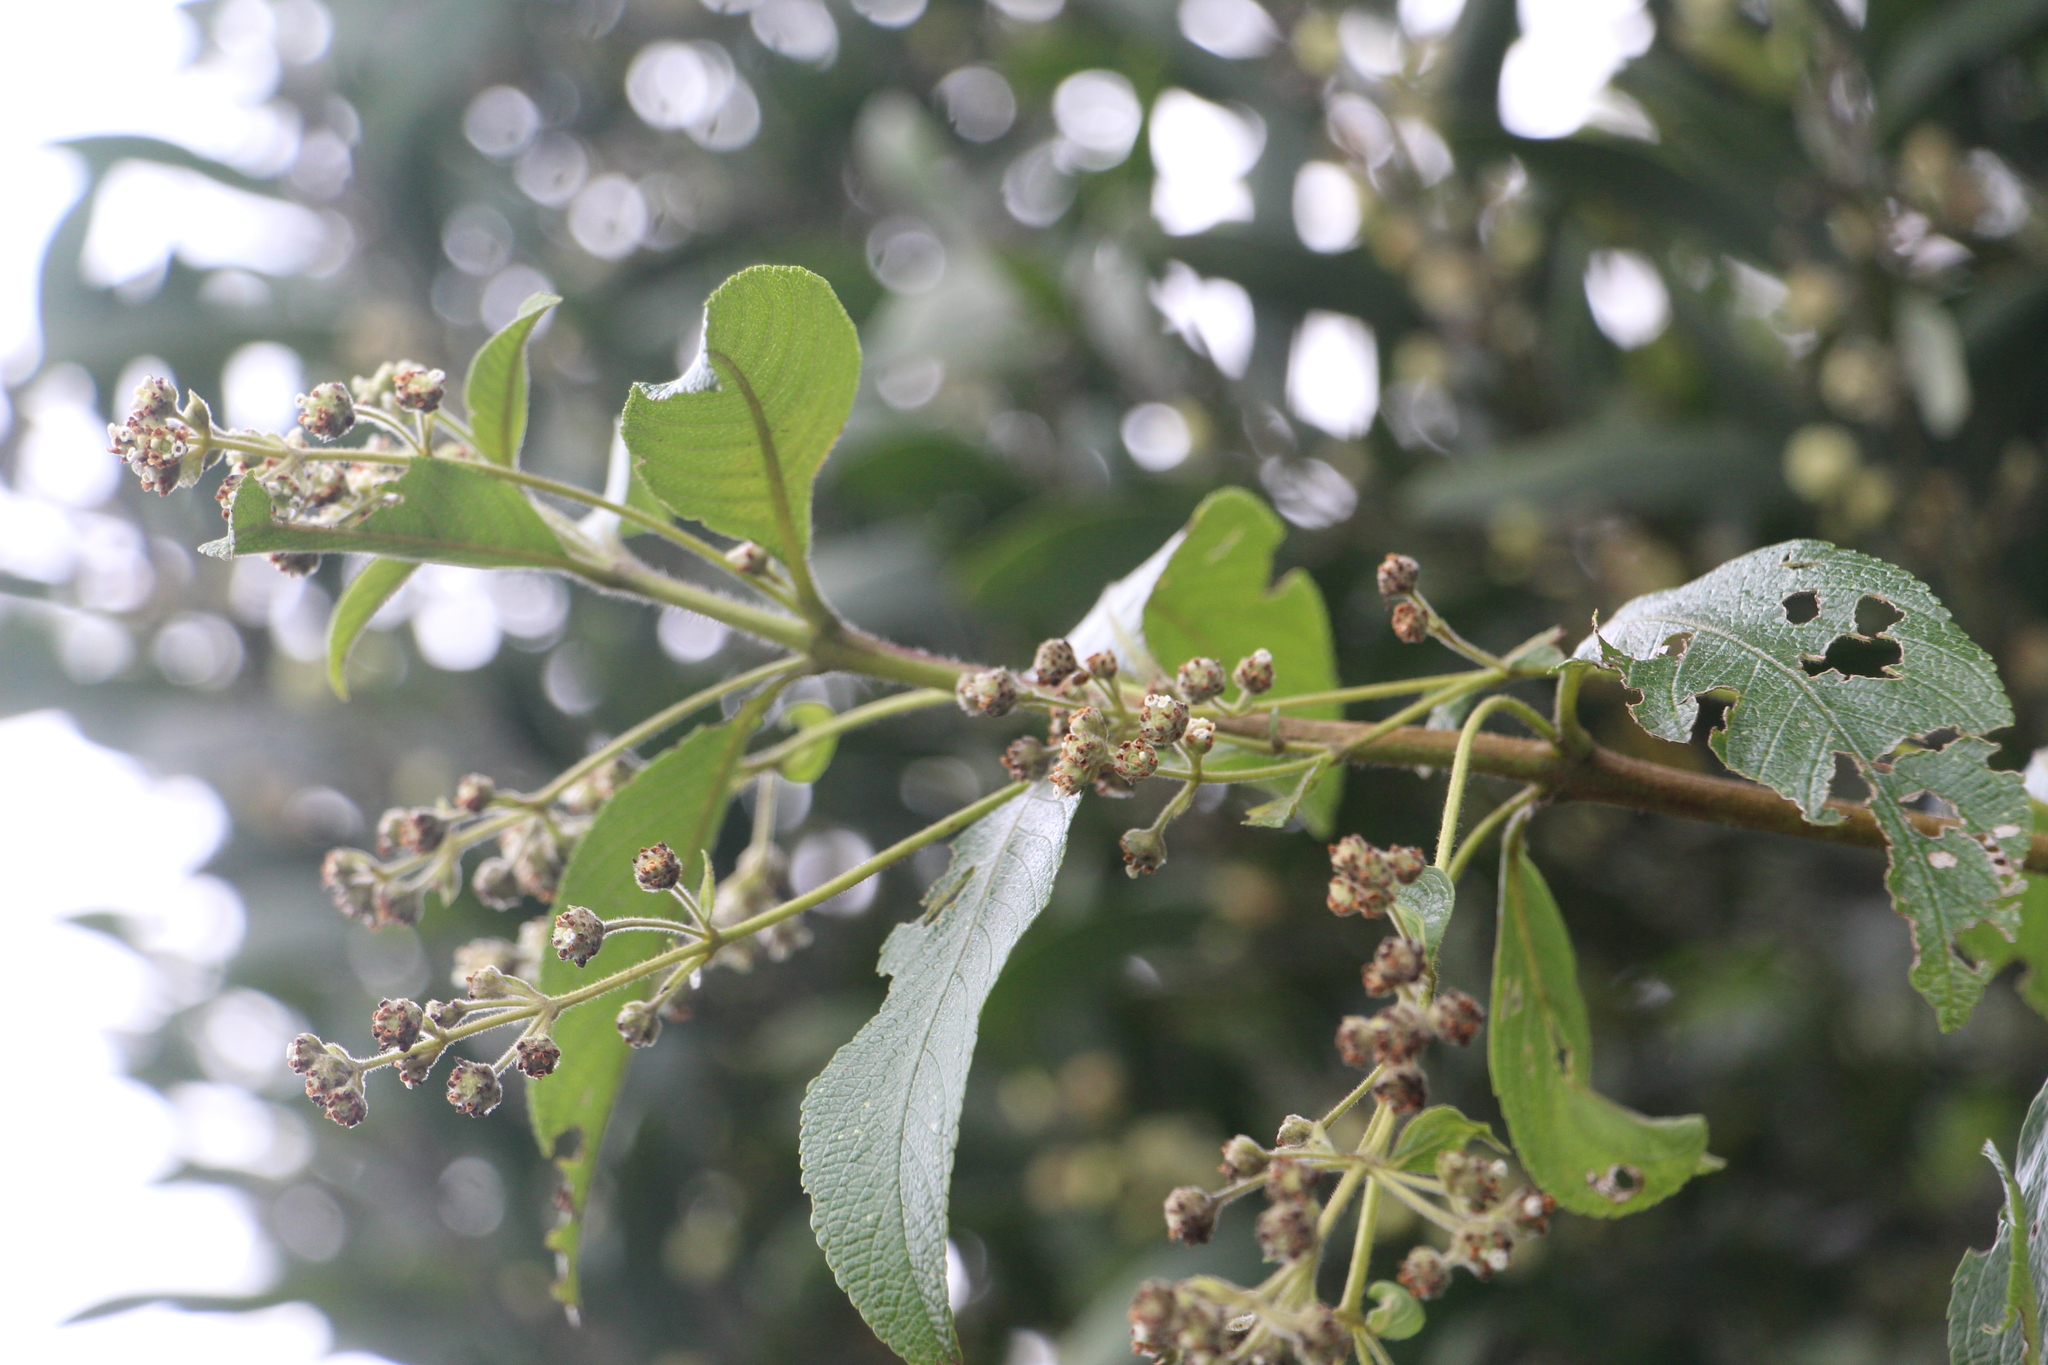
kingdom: Plantae
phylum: Tracheophyta
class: Magnoliopsida
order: Lamiales
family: Verbenaceae
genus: Lippia
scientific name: Lippia hirsuta
